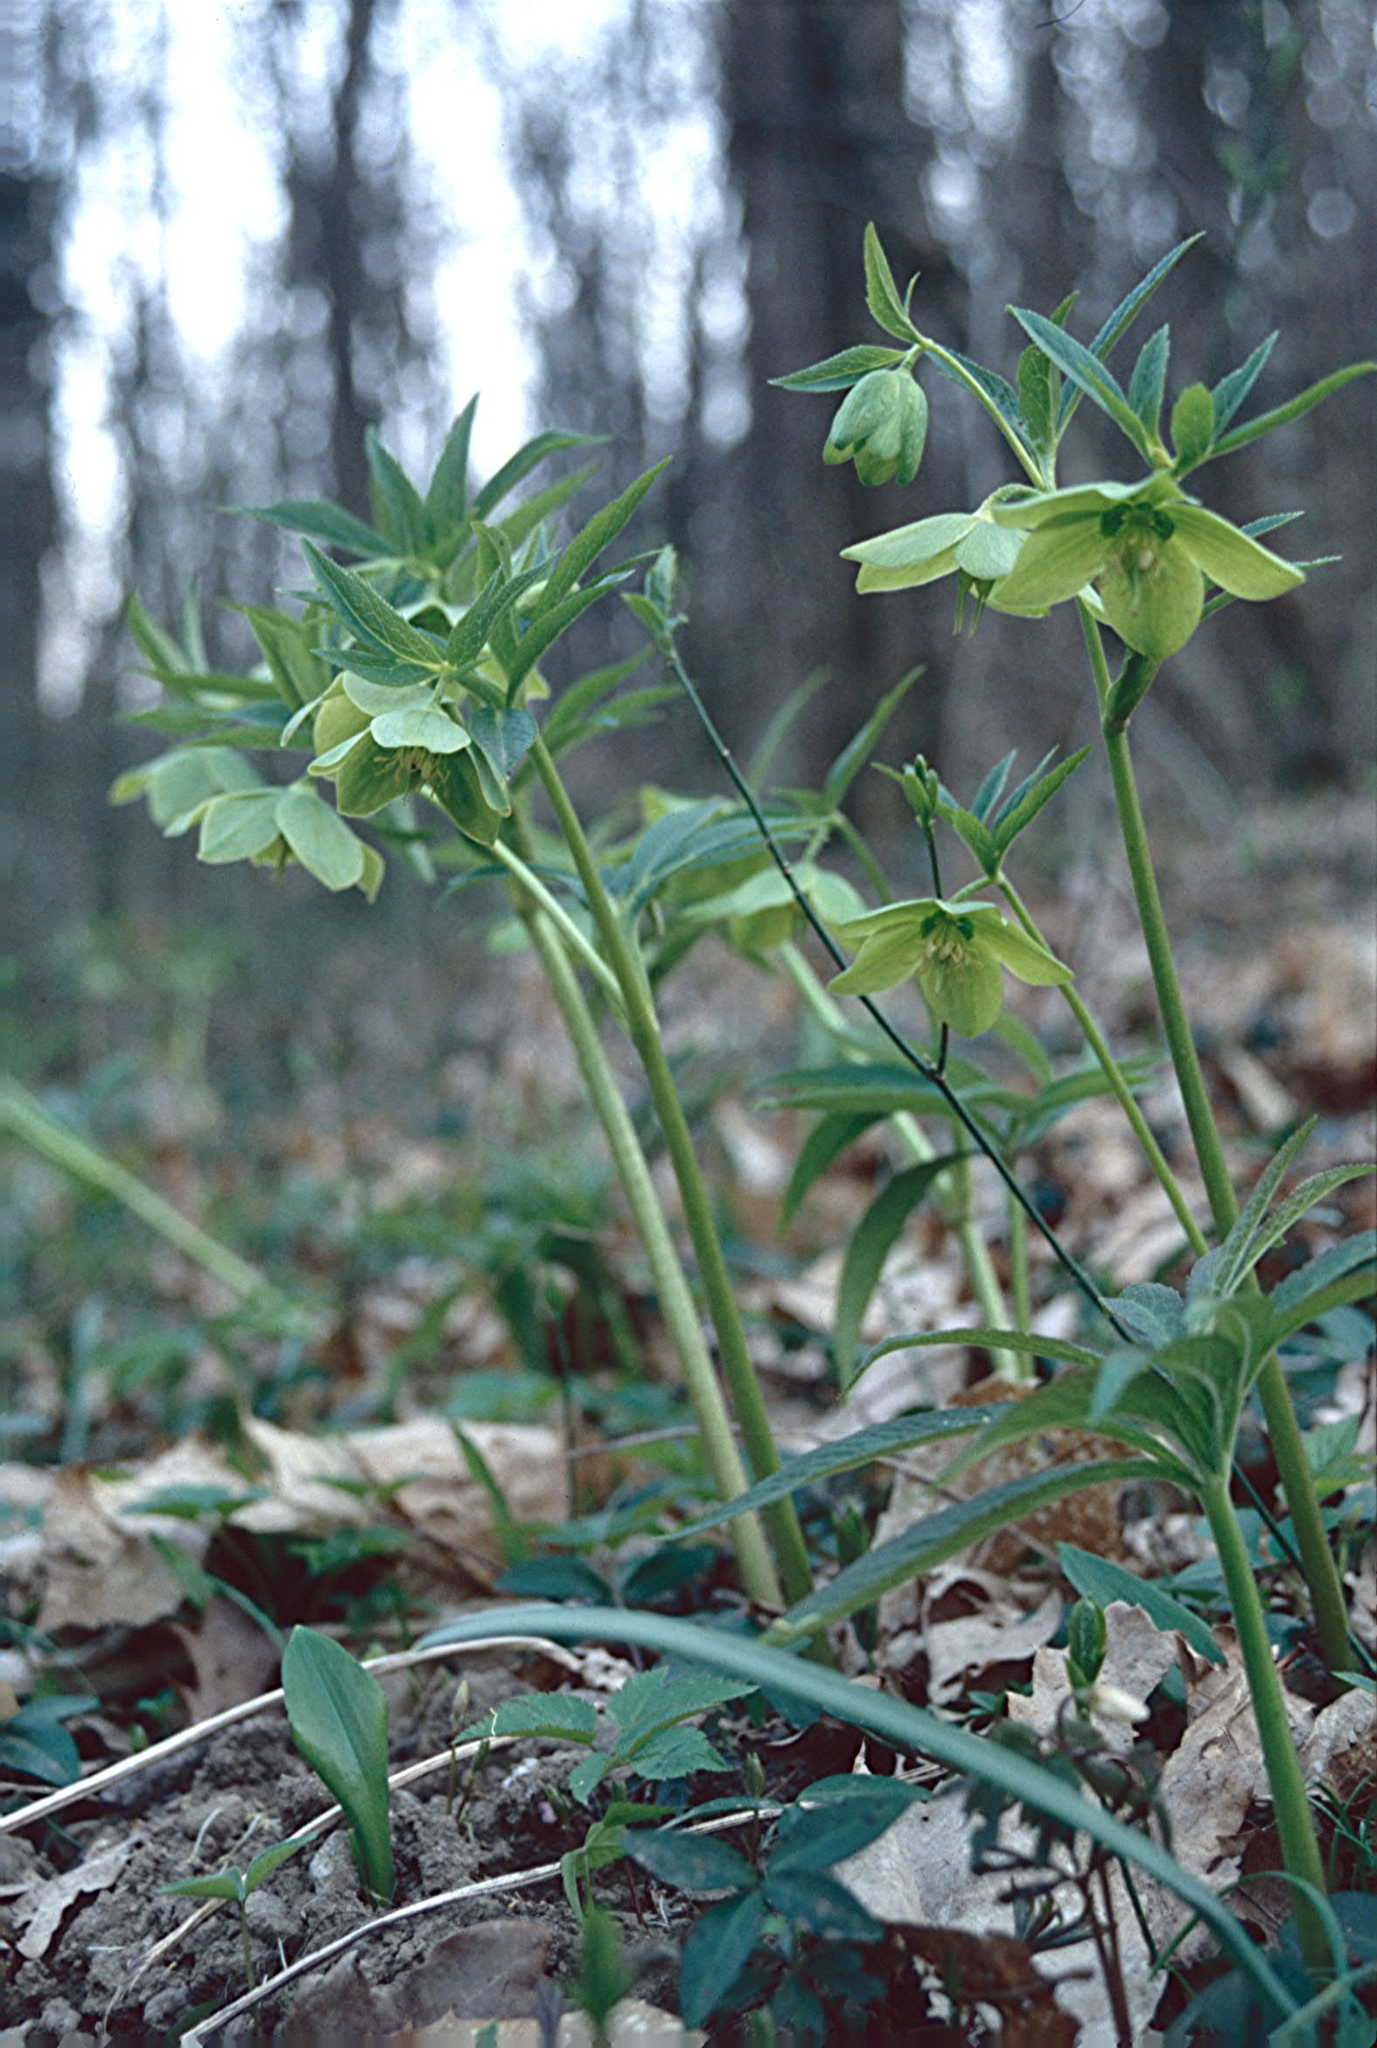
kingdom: Plantae
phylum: Tracheophyta
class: Magnoliopsida
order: Ranunculales
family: Ranunculaceae
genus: Helleborus
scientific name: Helleborus viridis
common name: Green hellebore
